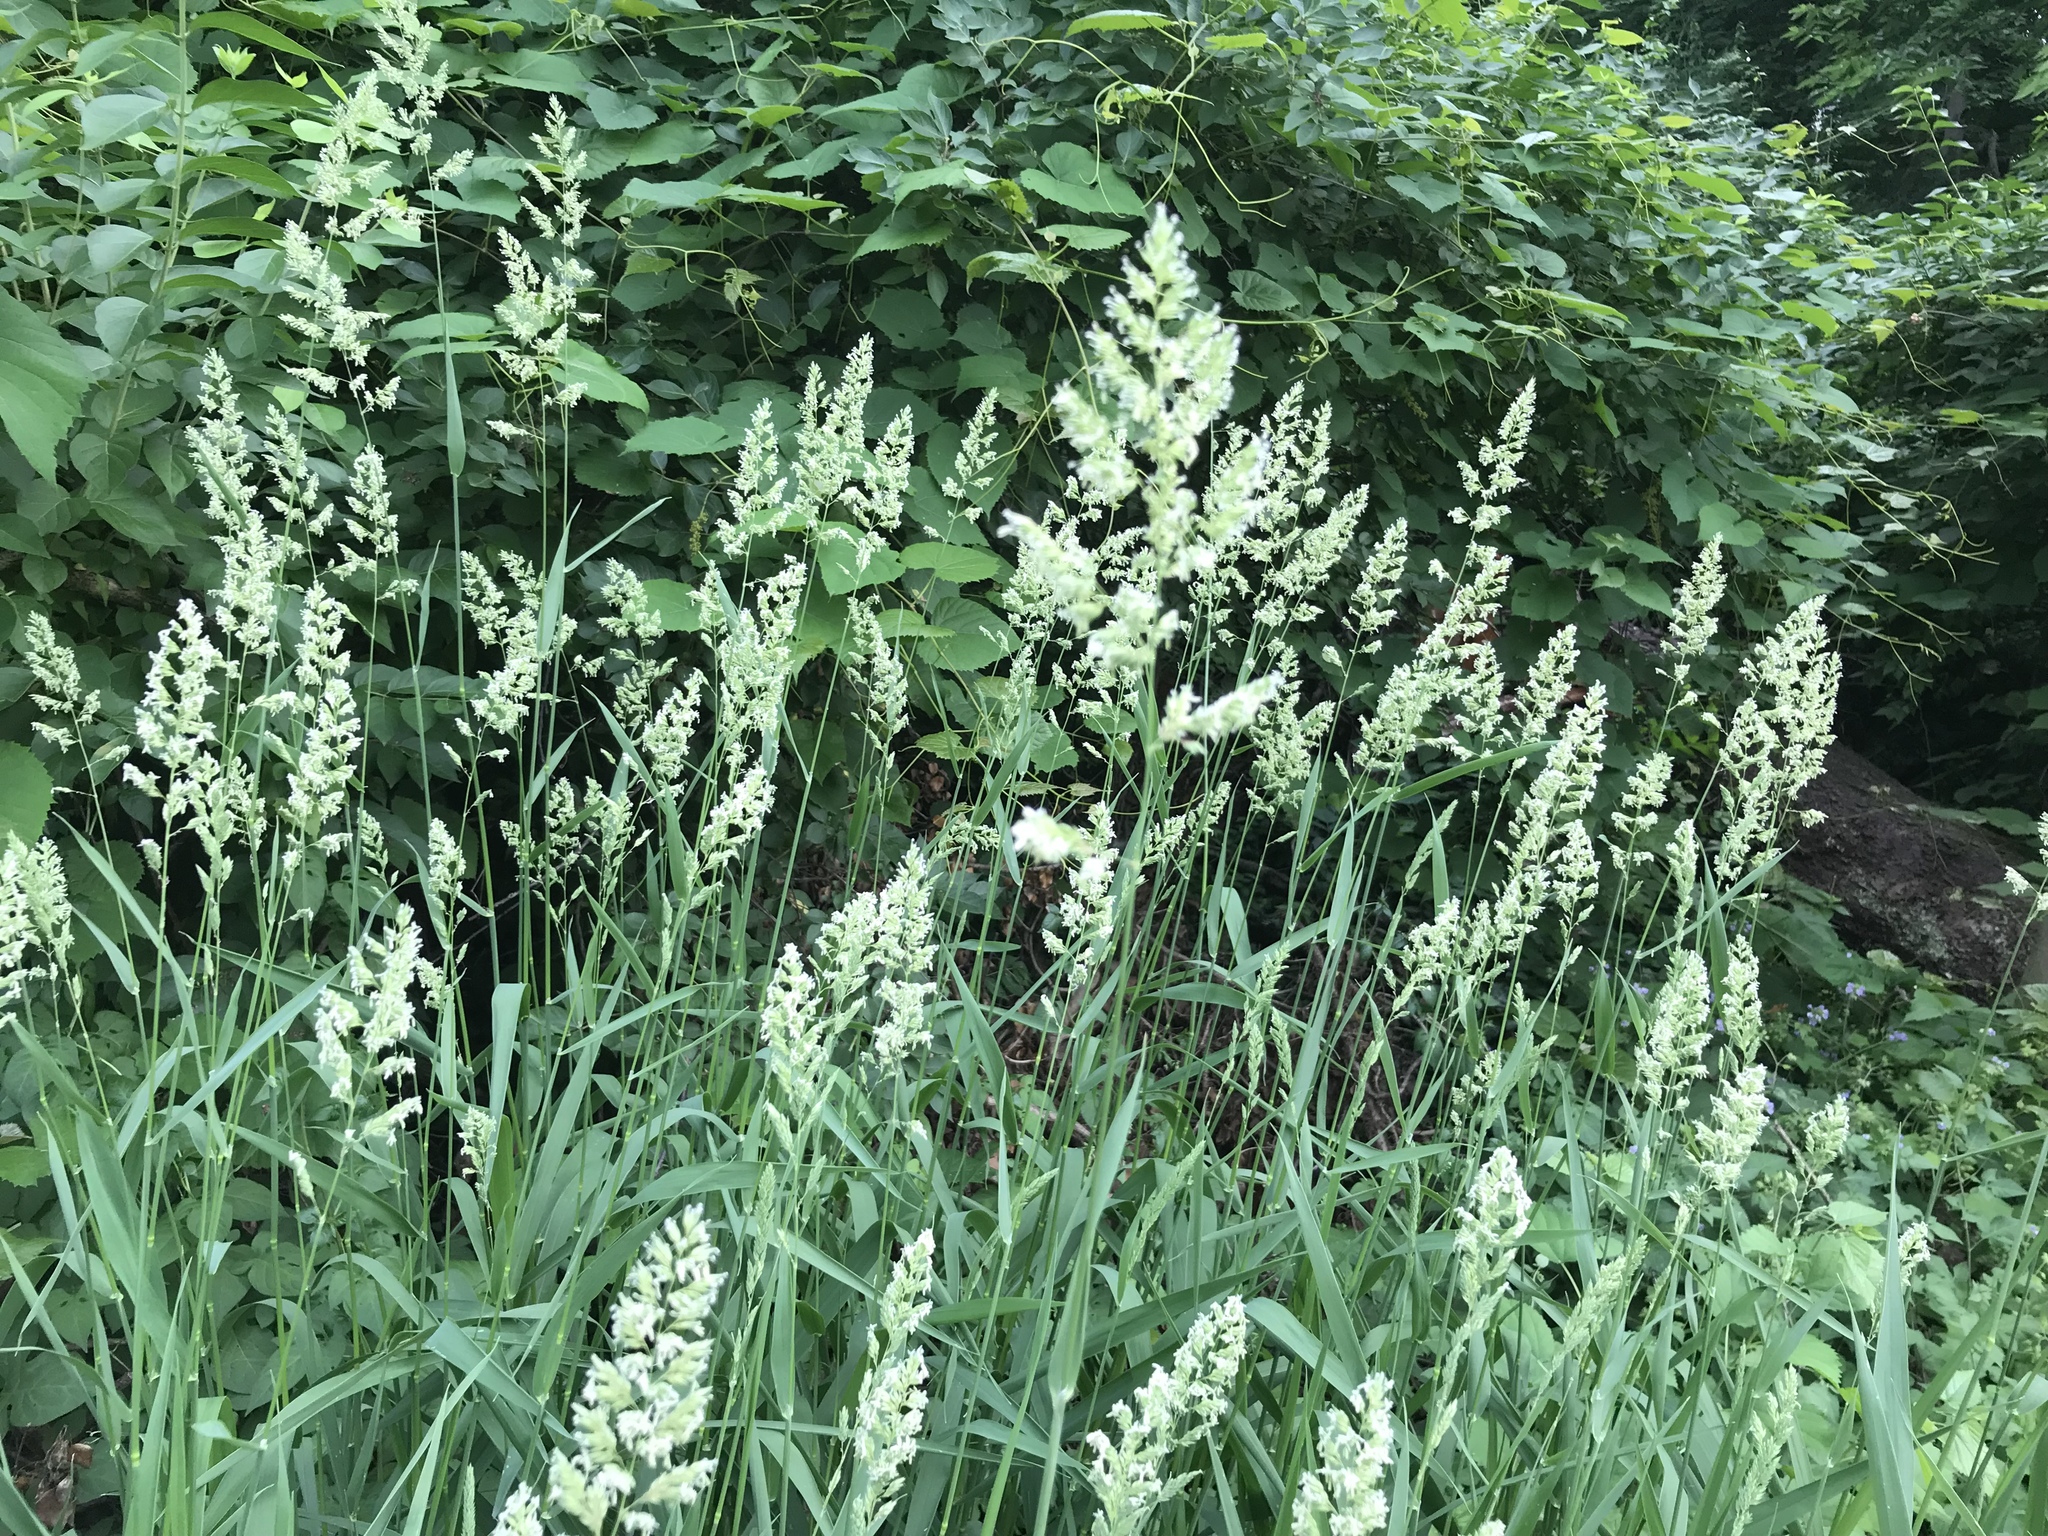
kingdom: Plantae
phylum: Tracheophyta
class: Liliopsida
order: Poales
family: Poaceae
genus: Phalaris
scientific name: Phalaris arundinacea
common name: Reed canary-grass
